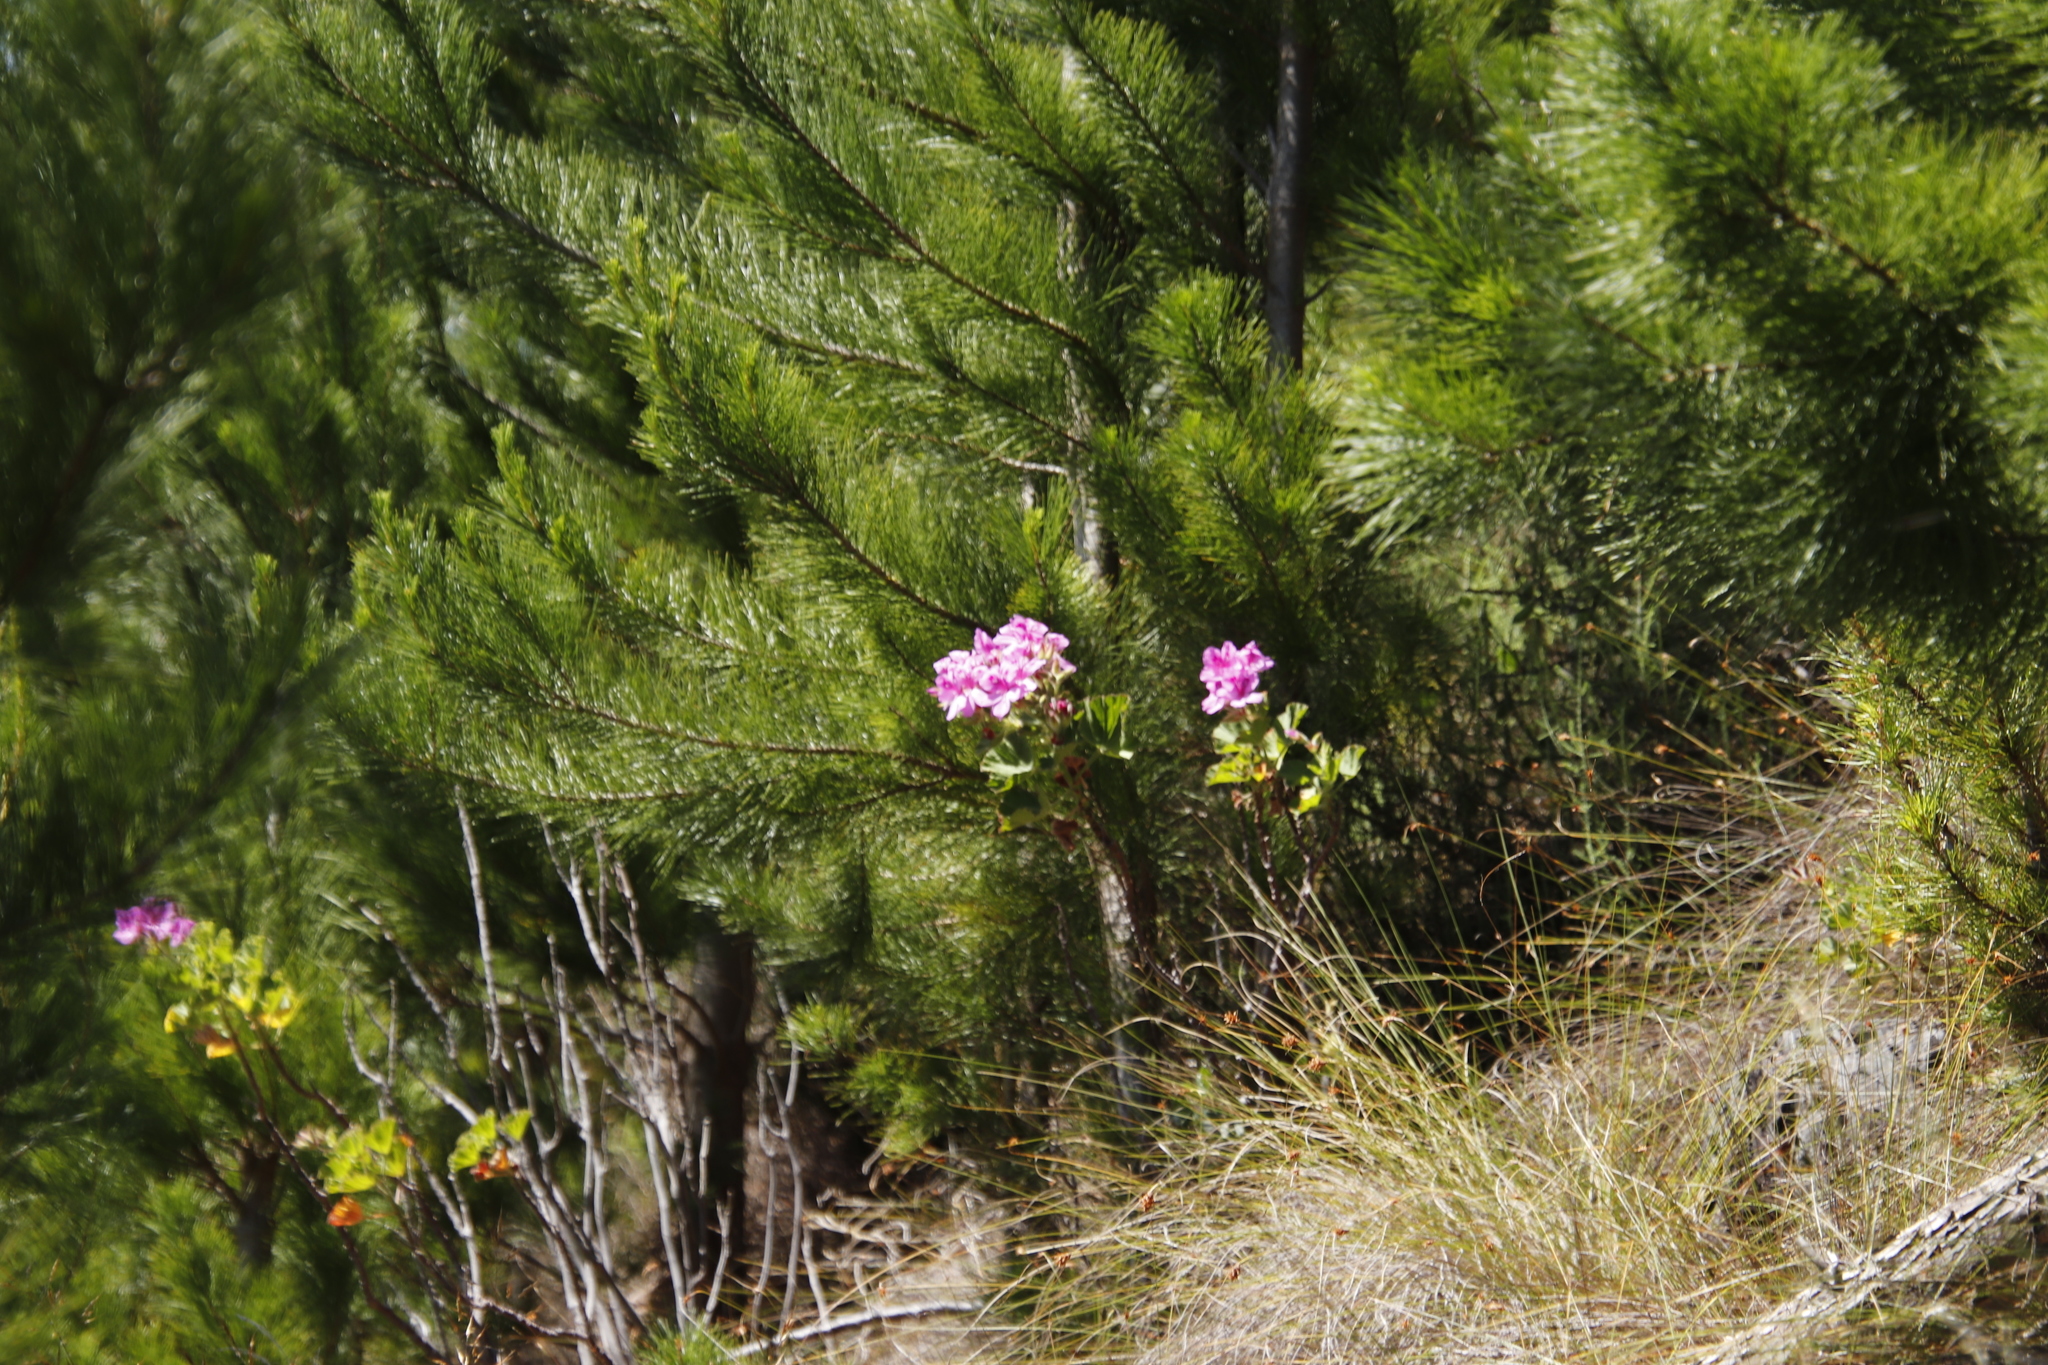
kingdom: Plantae
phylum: Tracheophyta
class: Magnoliopsida
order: Geraniales
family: Geraniaceae
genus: Pelargonium
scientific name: Pelargonium cucullatum
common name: Tree pelargonium
